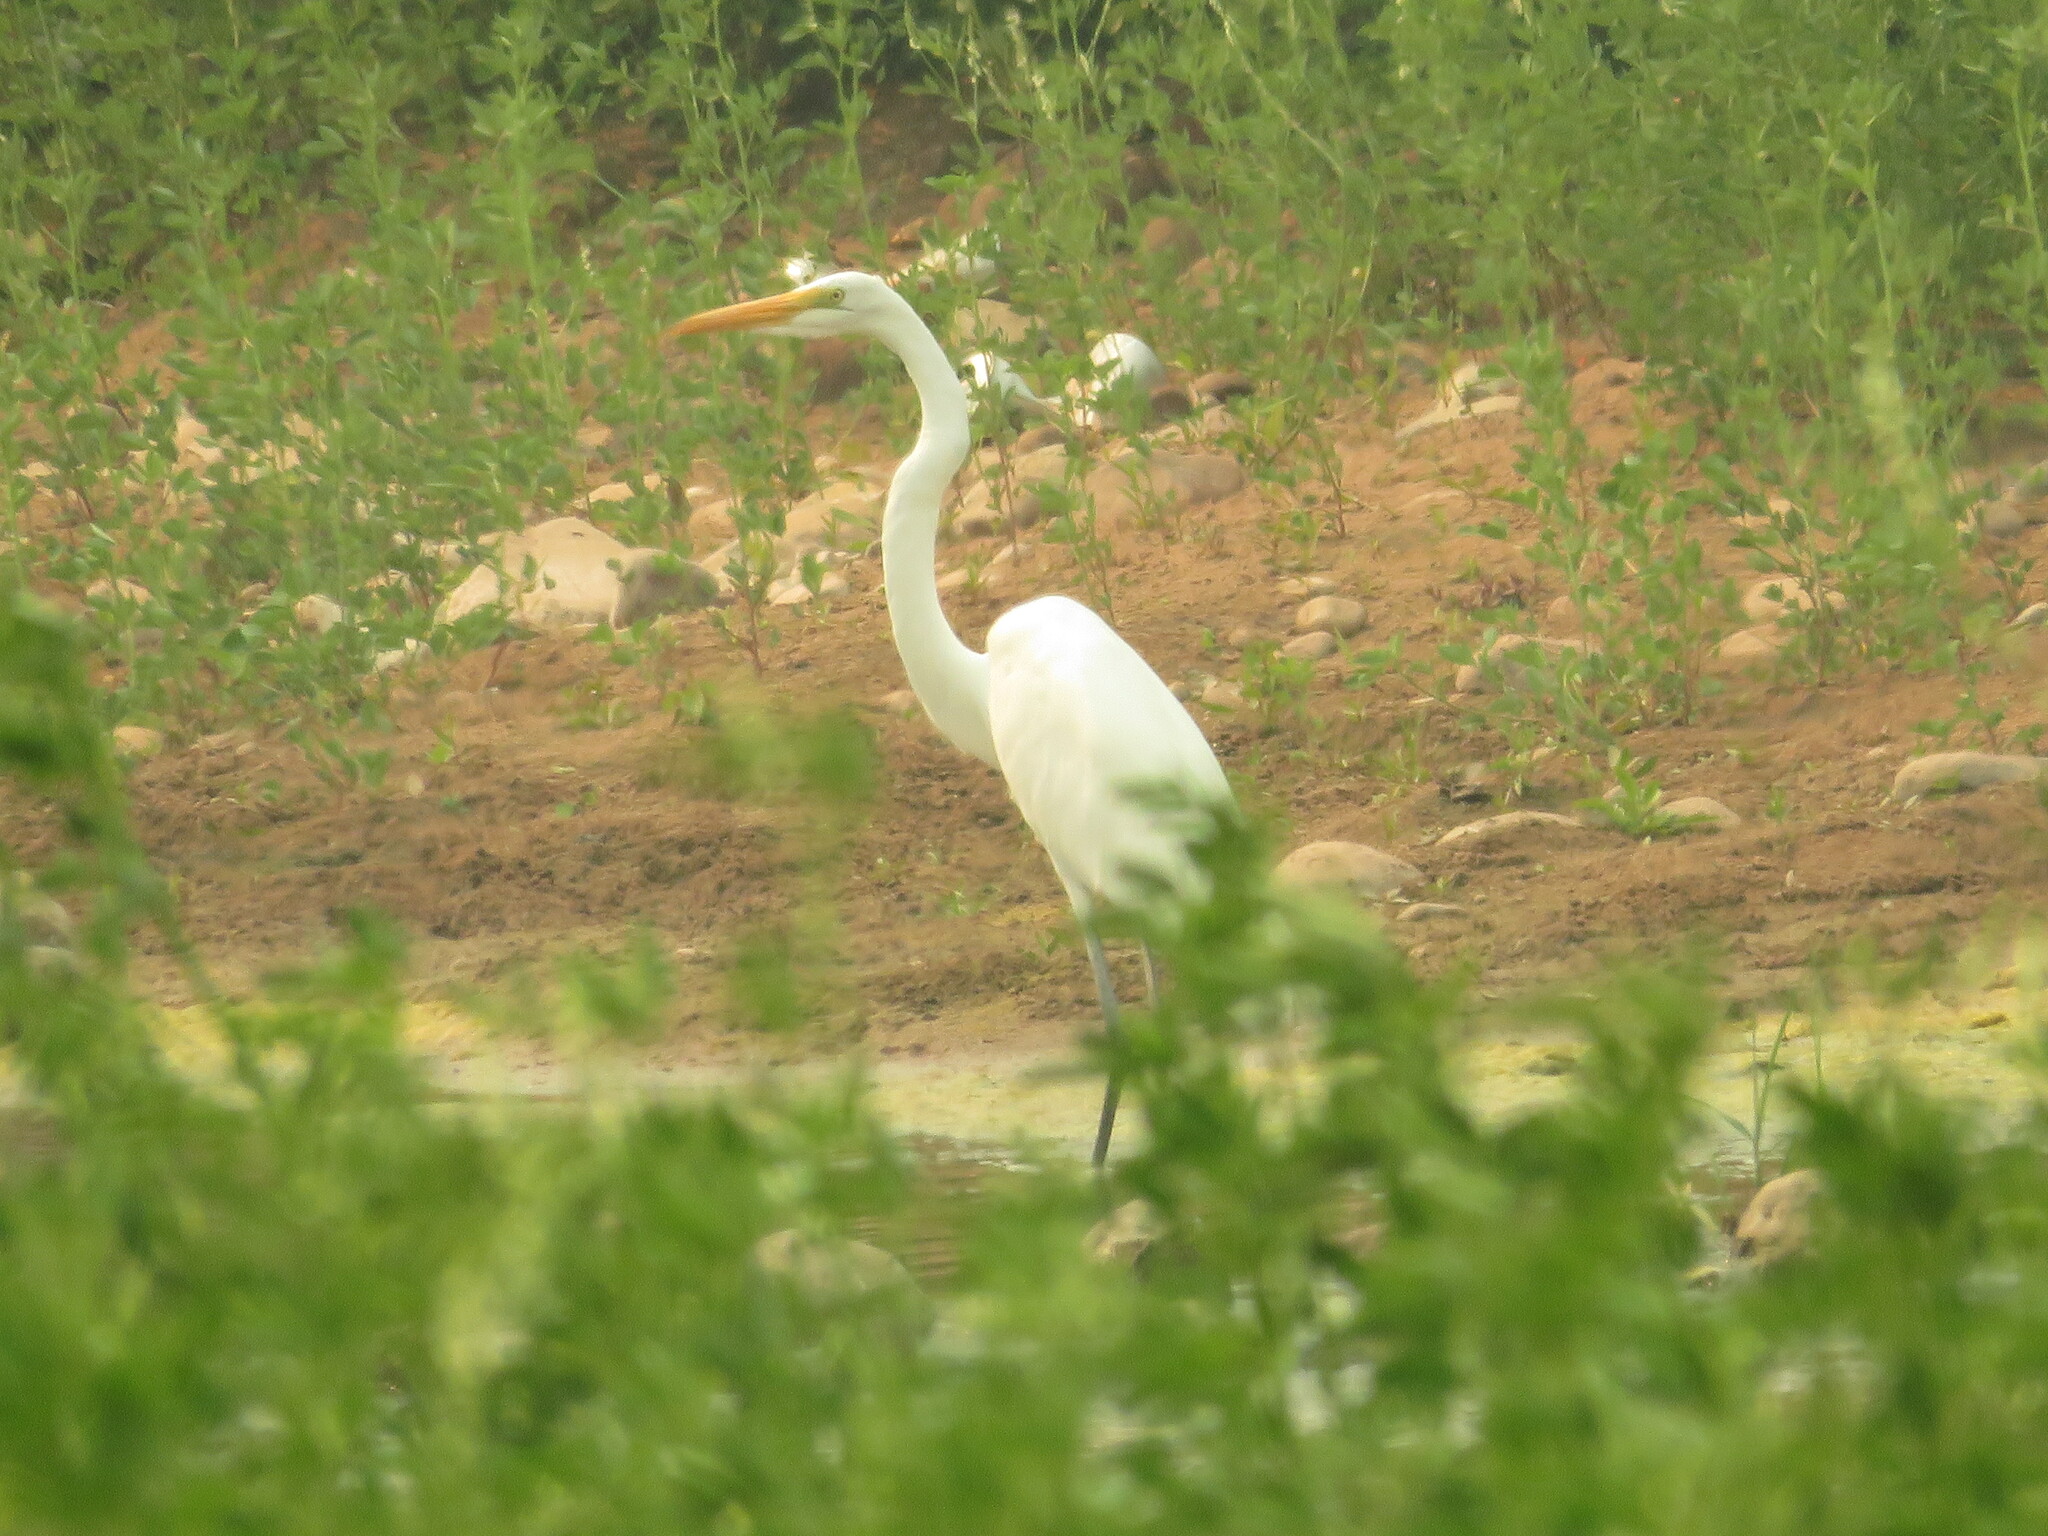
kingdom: Animalia
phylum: Chordata
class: Aves
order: Pelecaniformes
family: Ardeidae
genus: Ardea
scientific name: Ardea alba
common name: Great egret
